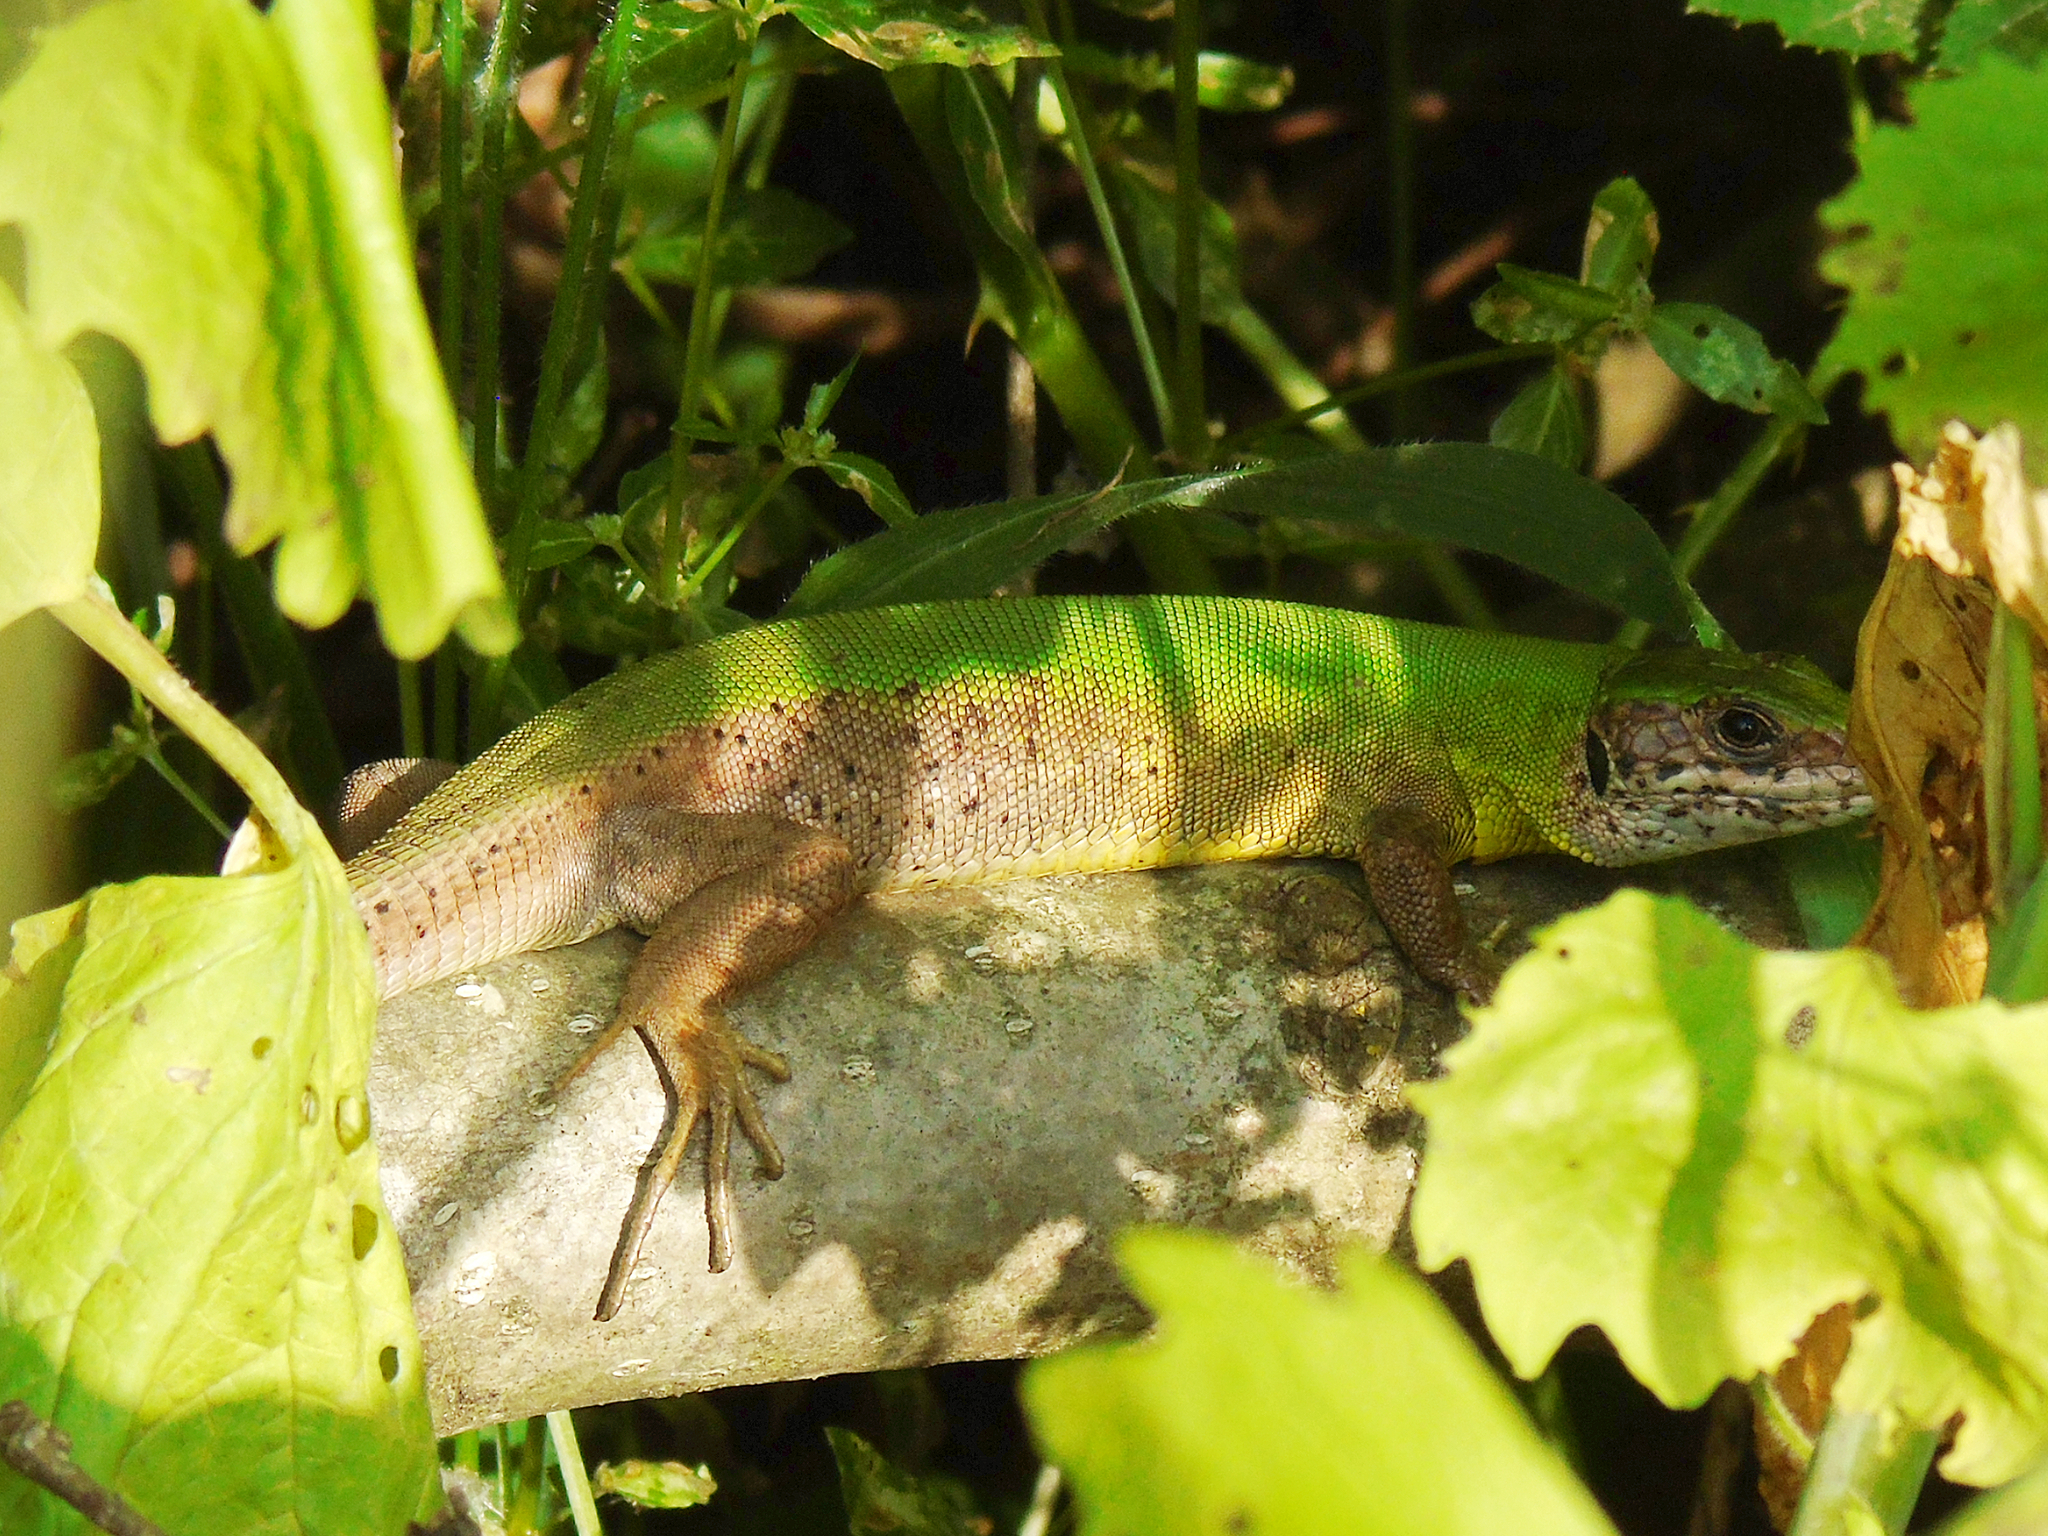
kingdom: Animalia
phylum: Chordata
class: Squamata
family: Lacertidae
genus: Lacerta
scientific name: Lacerta viridis
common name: European green lizard
